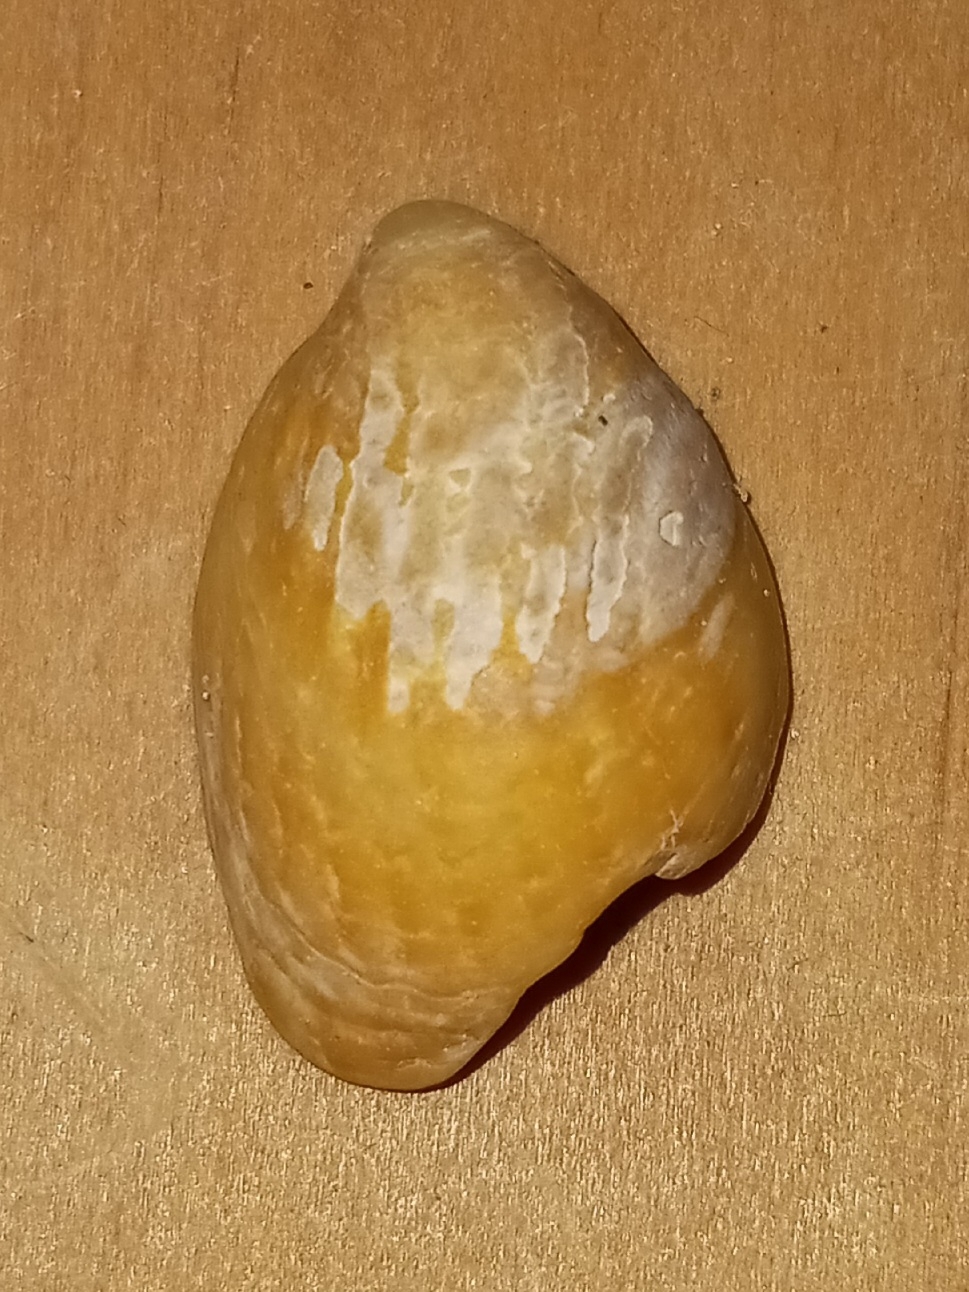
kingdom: Animalia
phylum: Mollusca
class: Gastropoda
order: Littorinimorpha
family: Calyptraeidae
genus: Crepidula
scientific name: Crepidula fornicata
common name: Slipper limpet
